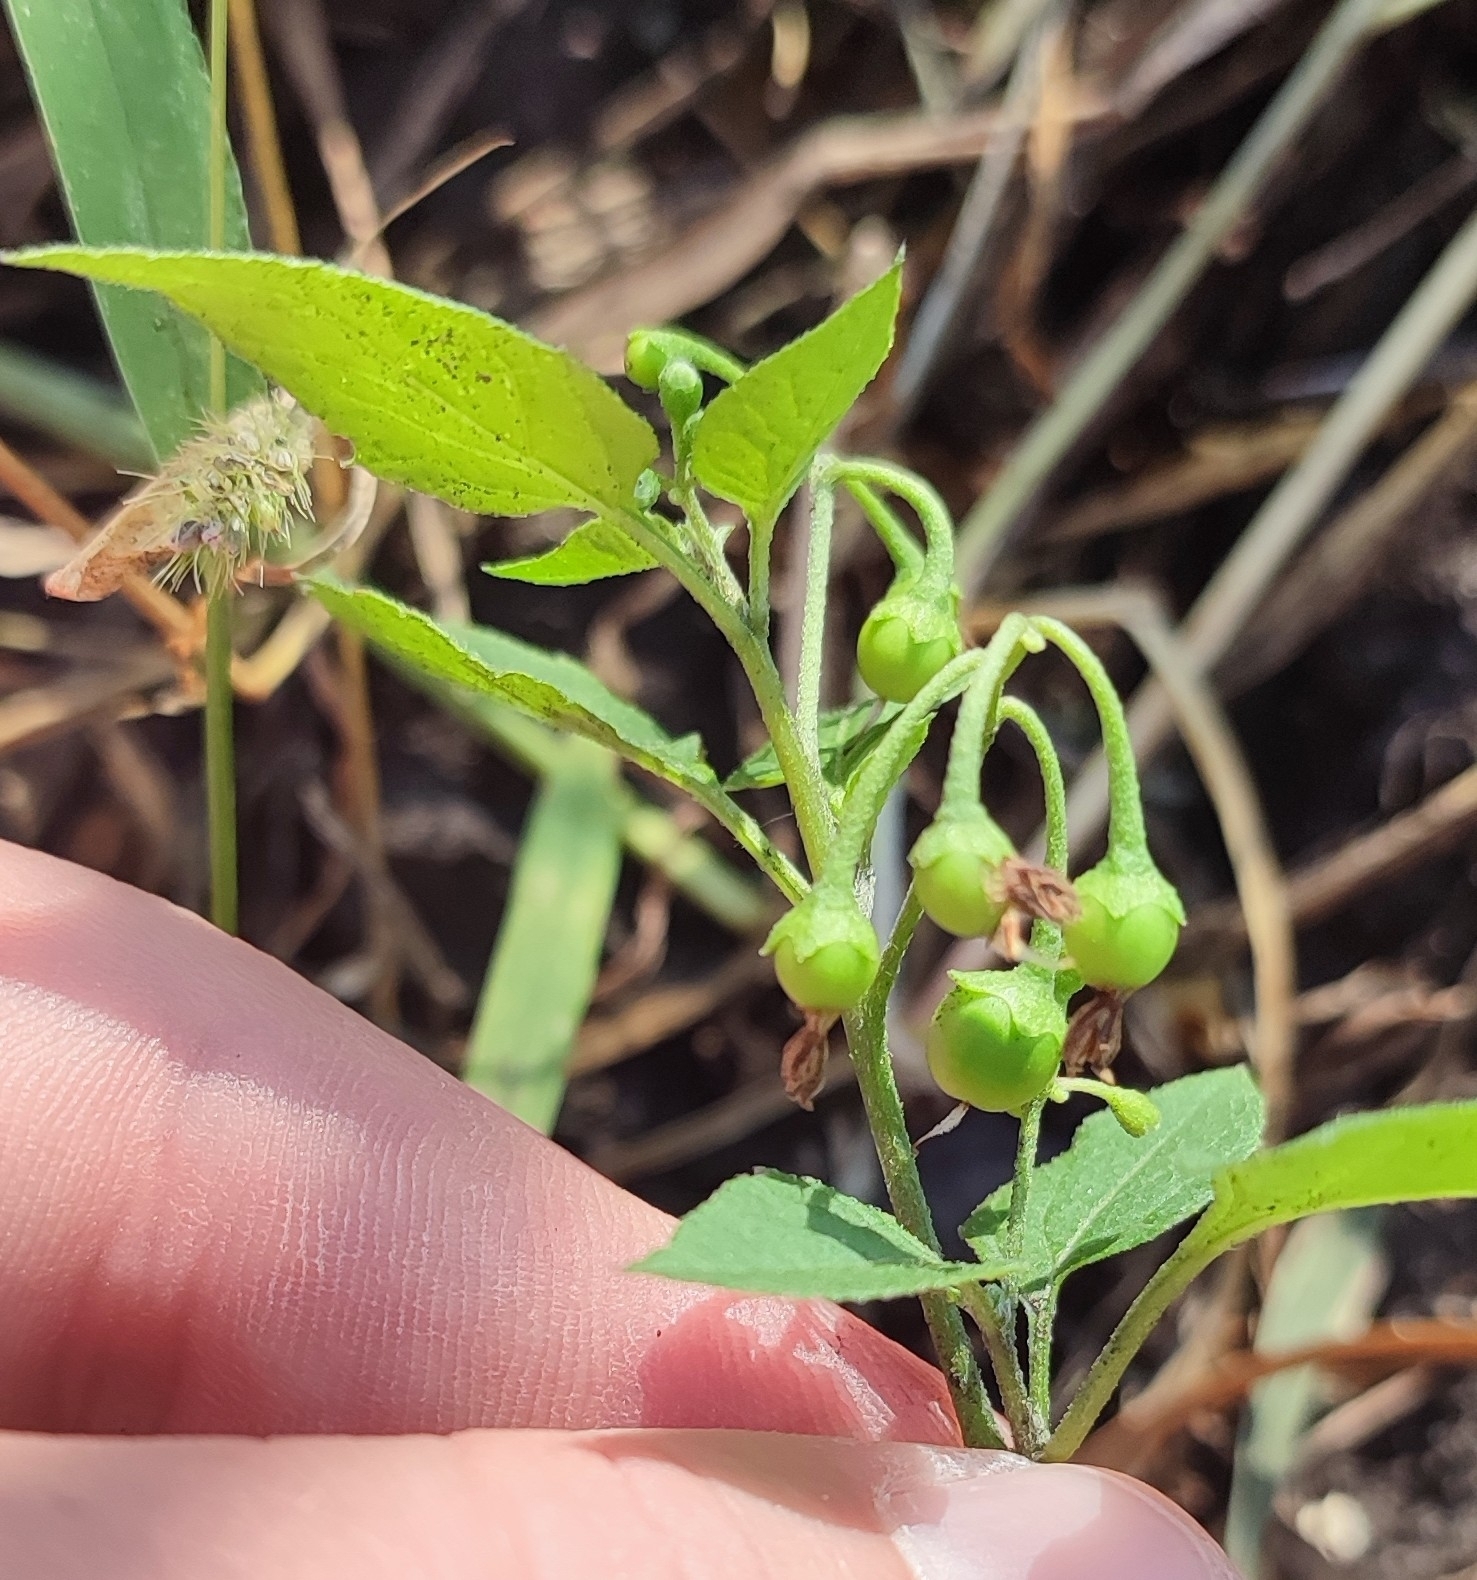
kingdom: Plantae
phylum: Tracheophyta
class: Magnoliopsida
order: Solanales
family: Solanaceae
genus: Solanum
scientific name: Solanum nigrum
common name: Black nightshade
